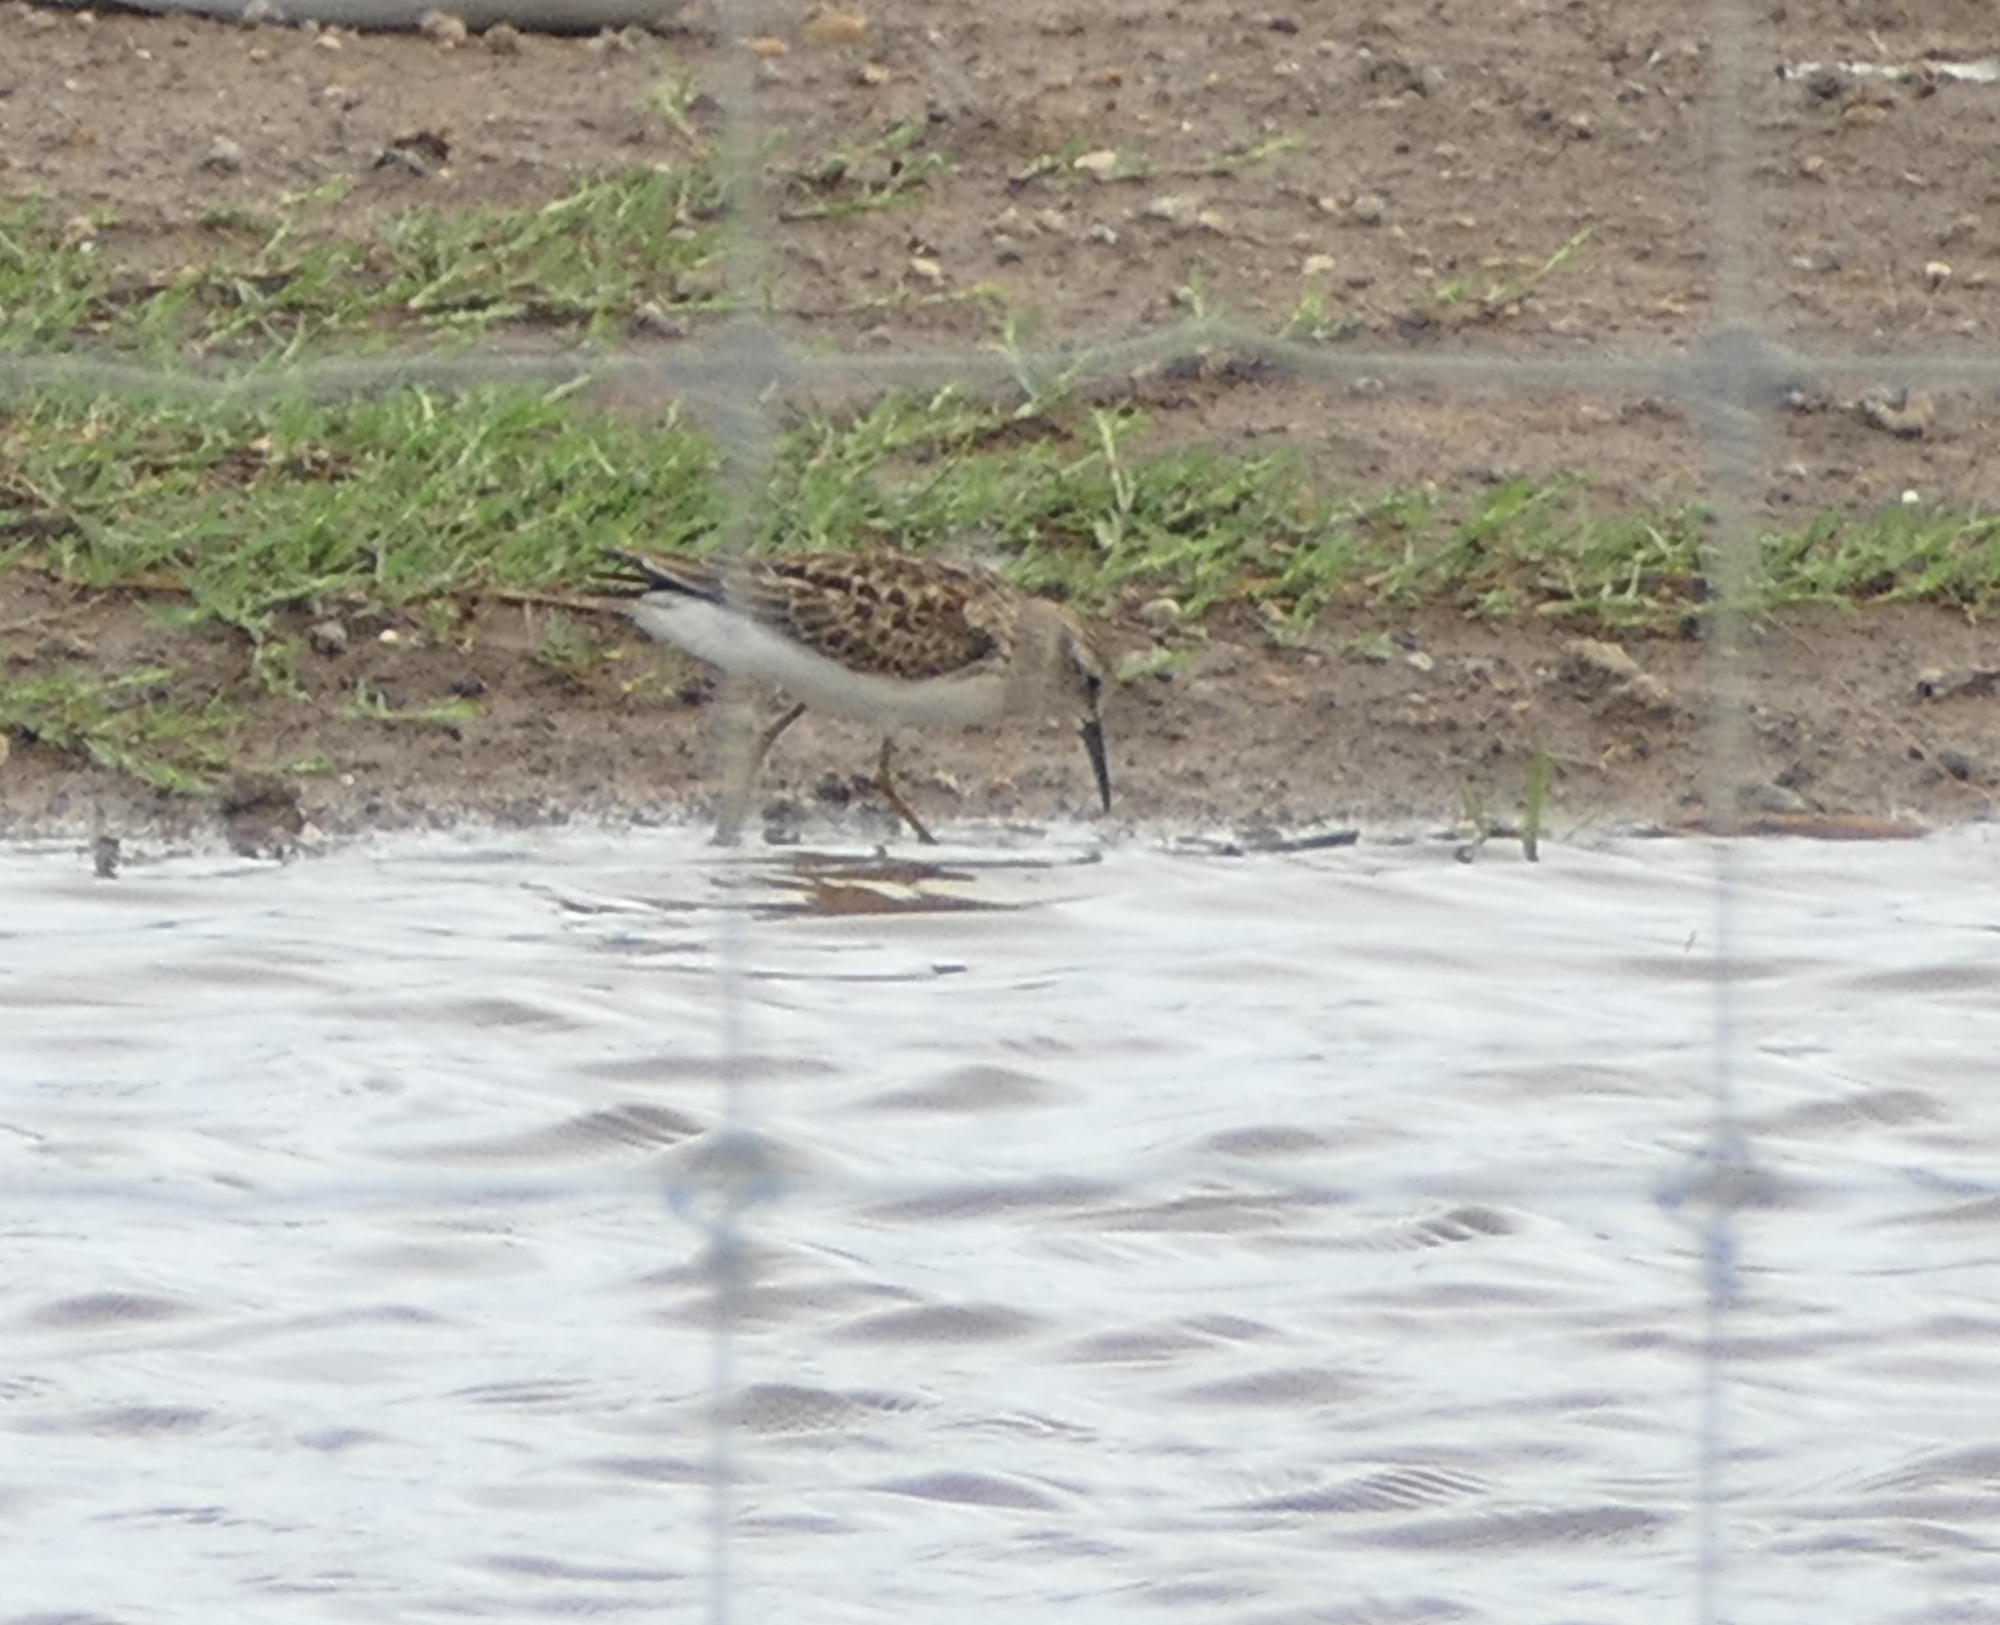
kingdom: Animalia
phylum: Chordata
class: Aves
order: Charadriiformes
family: Scolopacidae
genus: Calidris
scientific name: Calidris minutilla
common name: Least sandpiper
